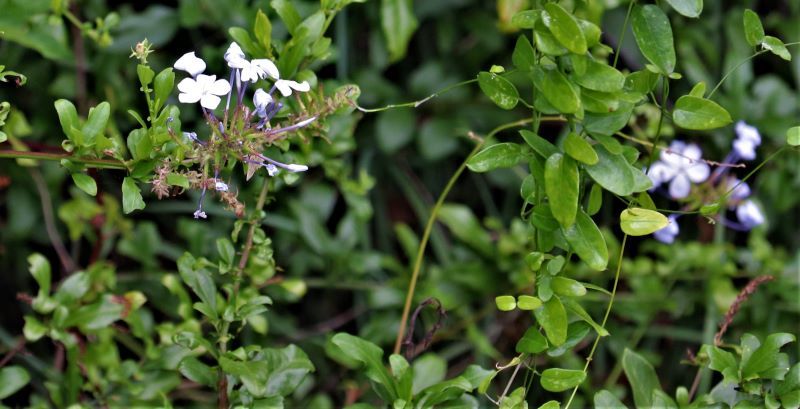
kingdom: Plantae
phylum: Tracheophyta
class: Magnoliopsida
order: Caryophyllales
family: Plumbaginaceae
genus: Plumbago
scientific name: Plumbago auriculata
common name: Cape leadwort
